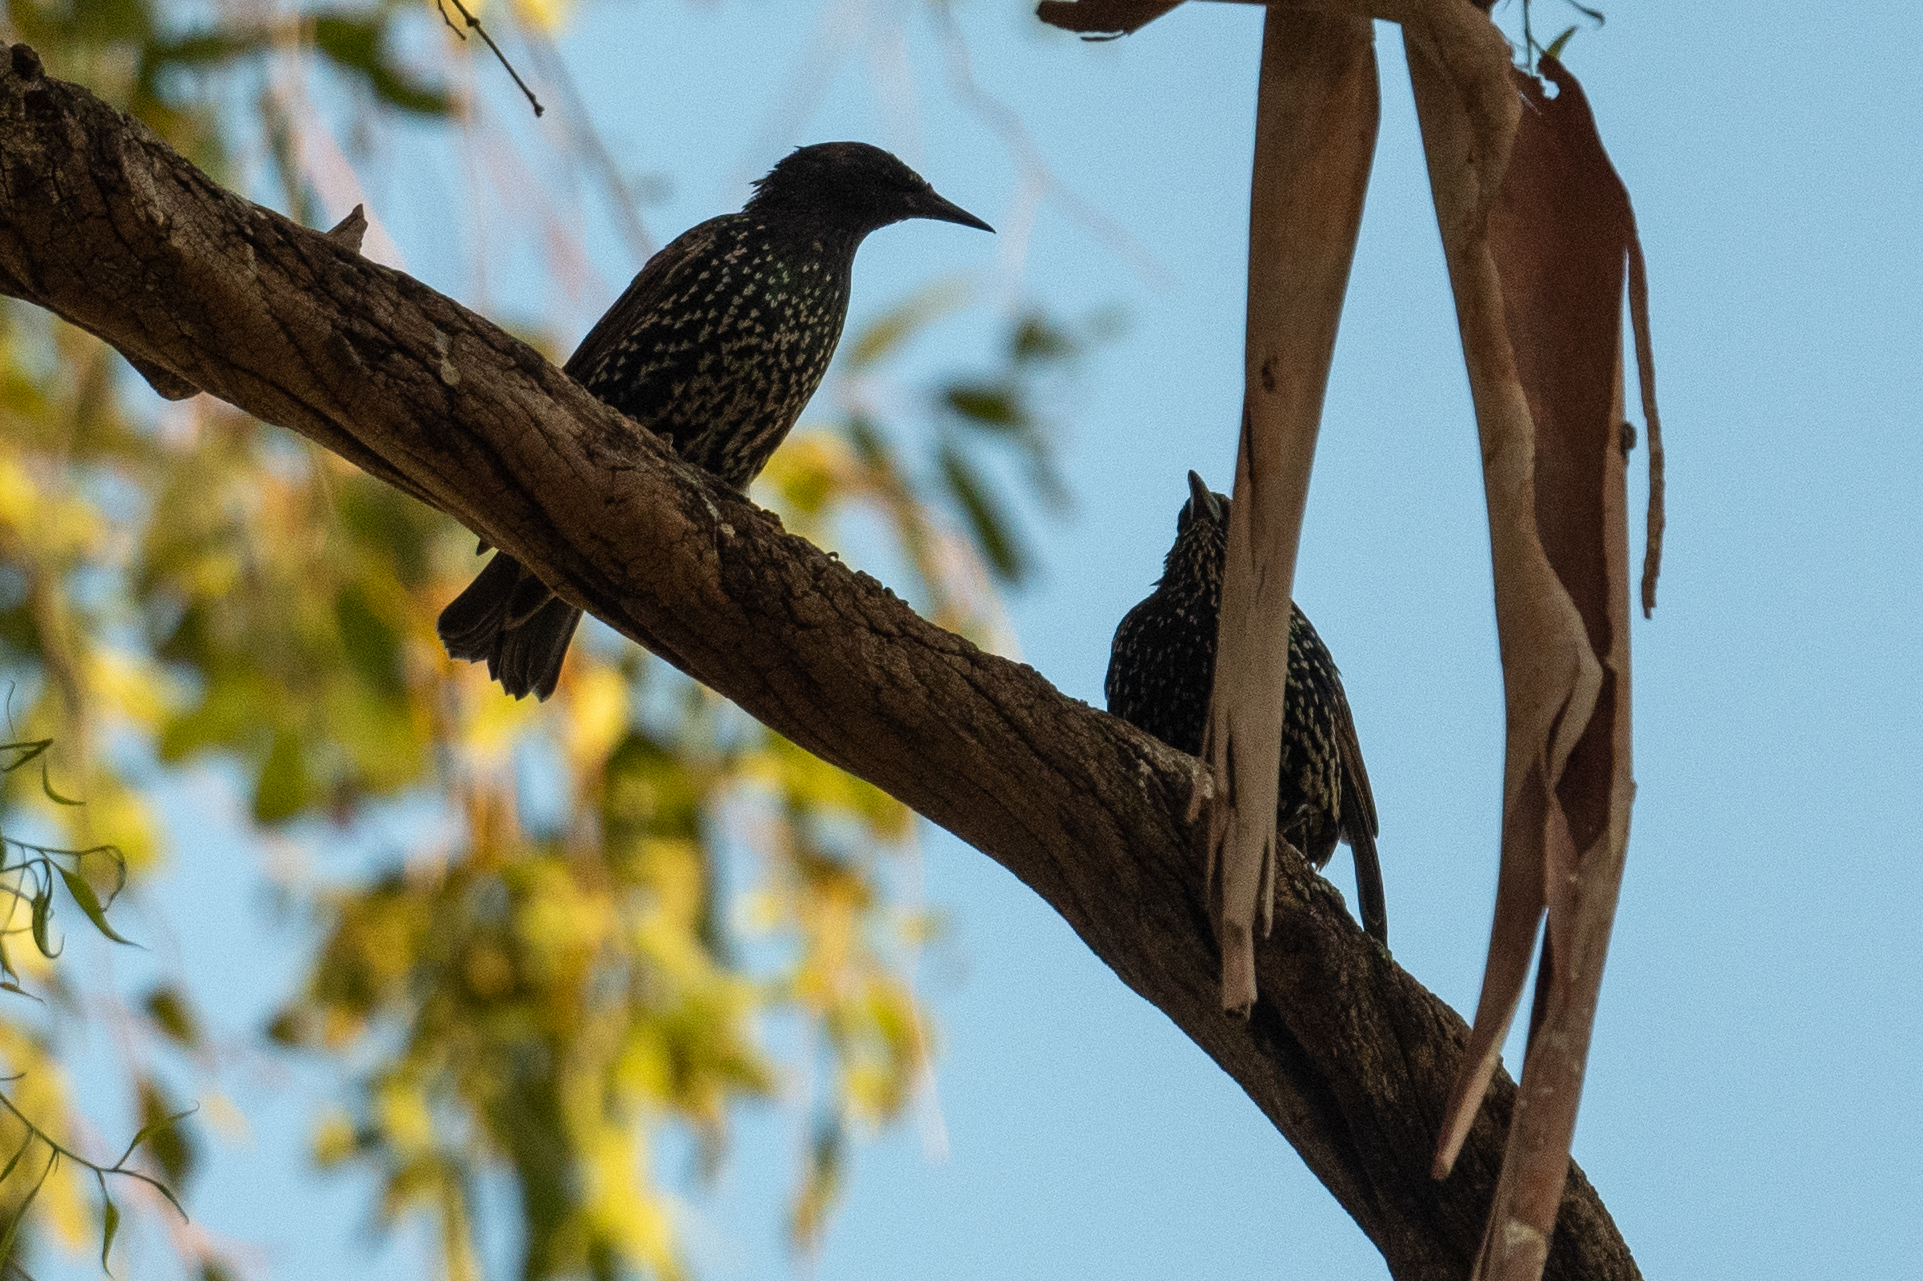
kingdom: Animalia
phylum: Chordata
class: Aves
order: Passeriformes
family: Sturnidae
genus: Sturnus
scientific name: Sturnus vulgaris
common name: Common starling
